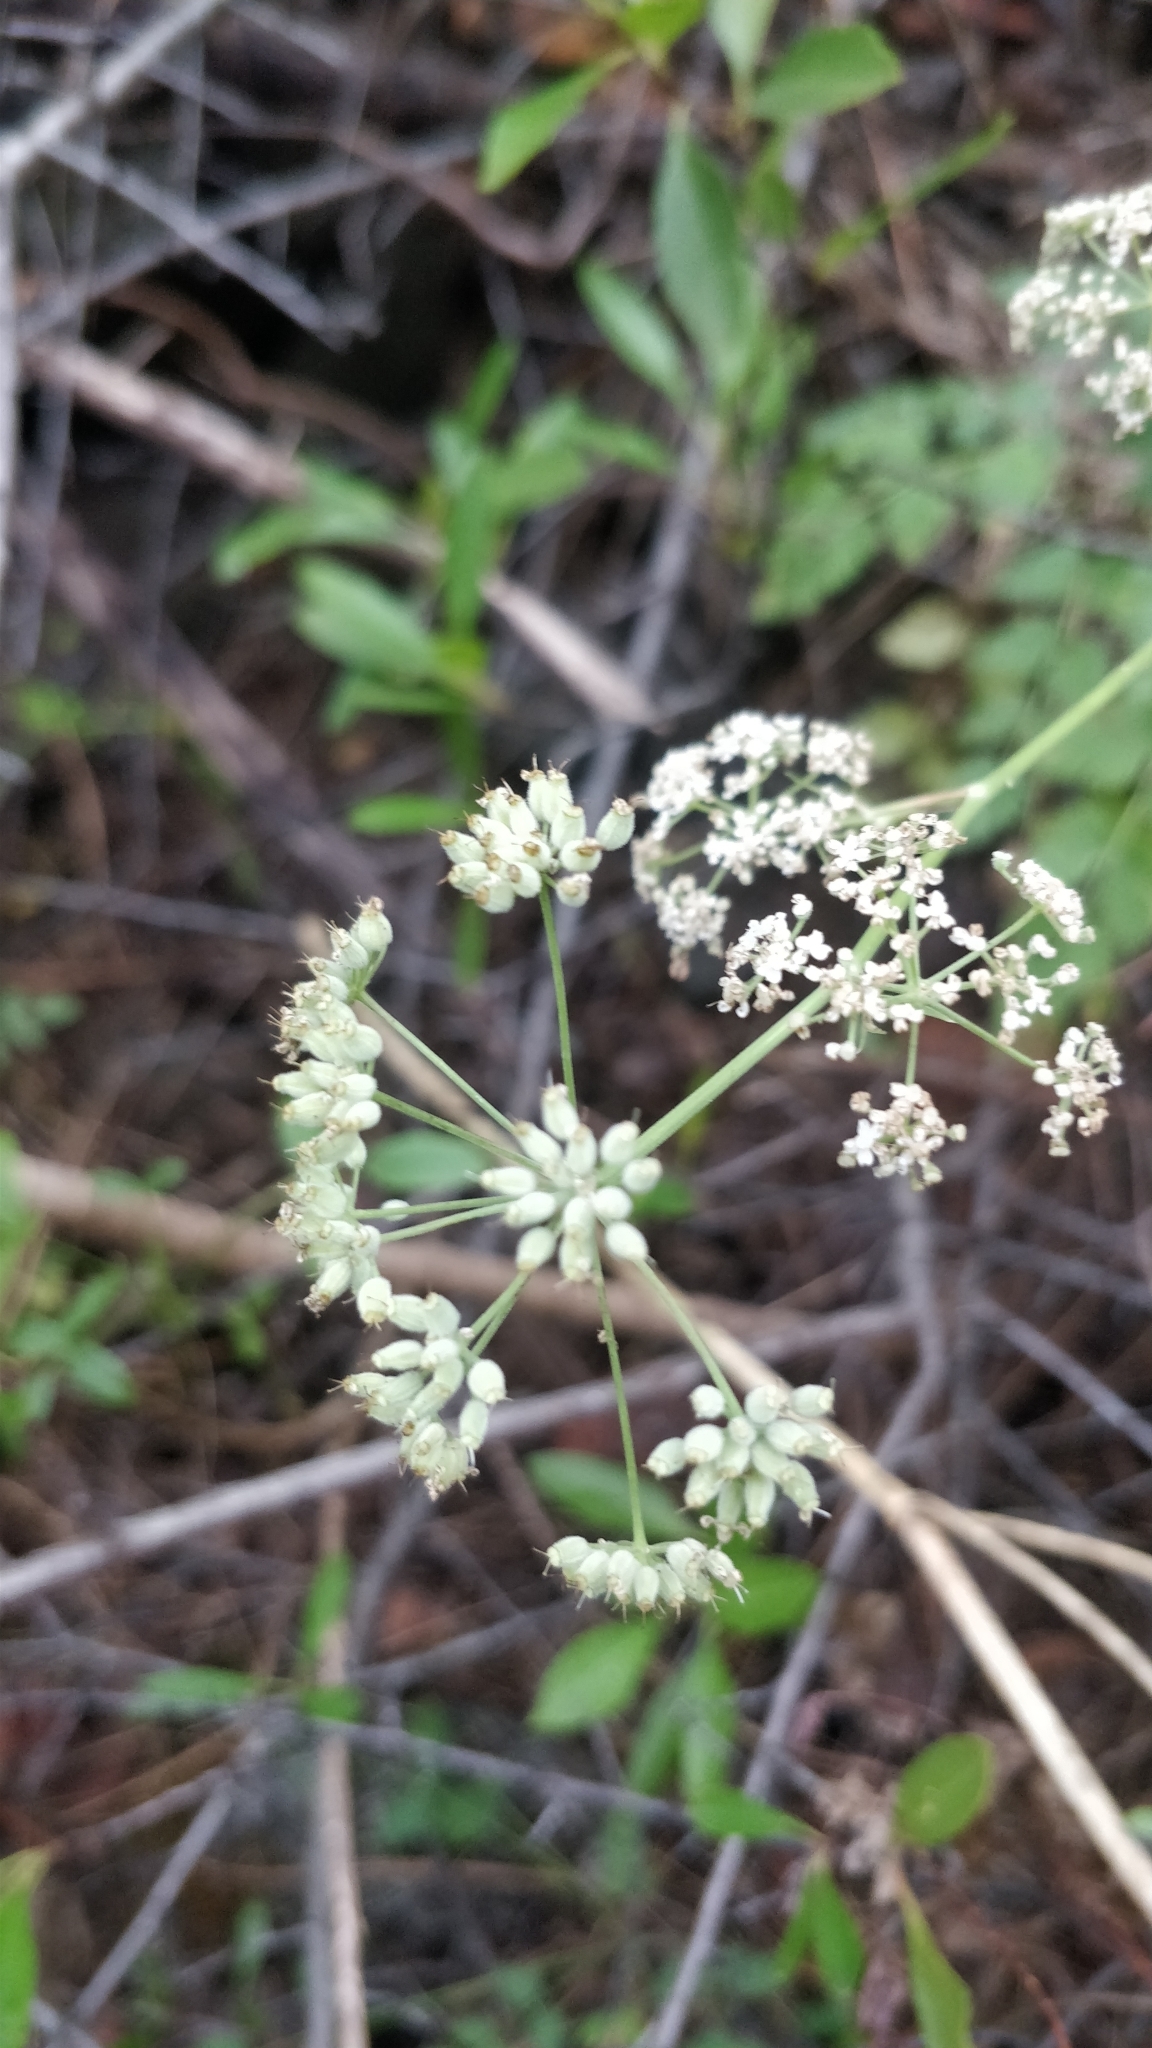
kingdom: Plantae
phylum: Tracheophyta
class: Magnoliopsida
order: Apiales
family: Apiaceae
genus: Pimpinella
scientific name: Pimpinella dendroselinum
